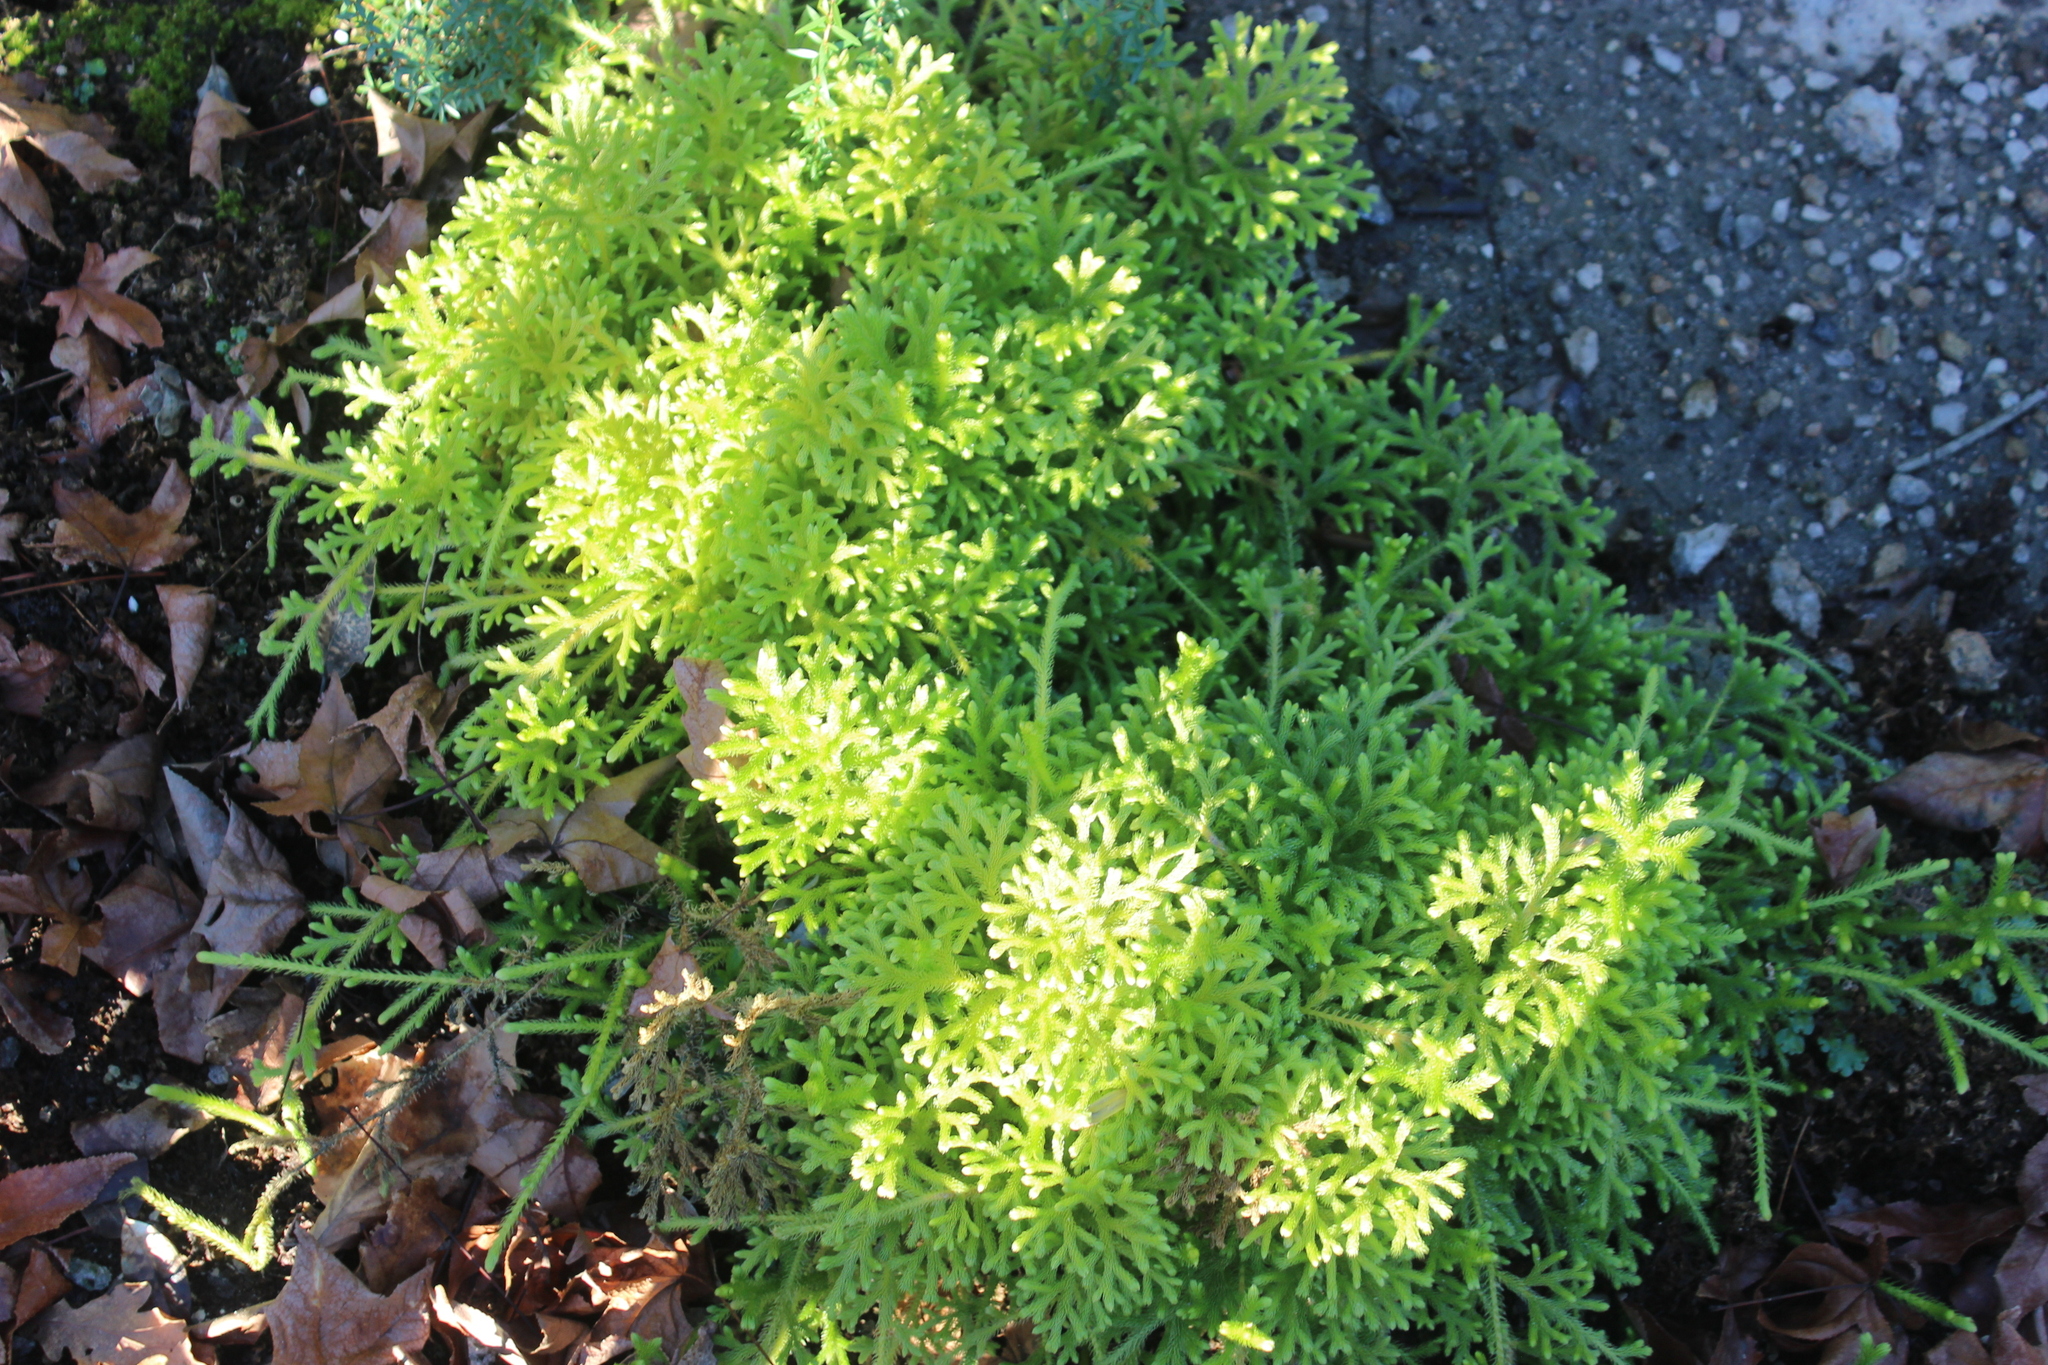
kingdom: Plantae
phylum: Tracheophyta
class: Lycopodiopsida
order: Lycopodiales
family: Lycopodiaceae
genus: Palhinhaea
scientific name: Palhinhaea cernua
